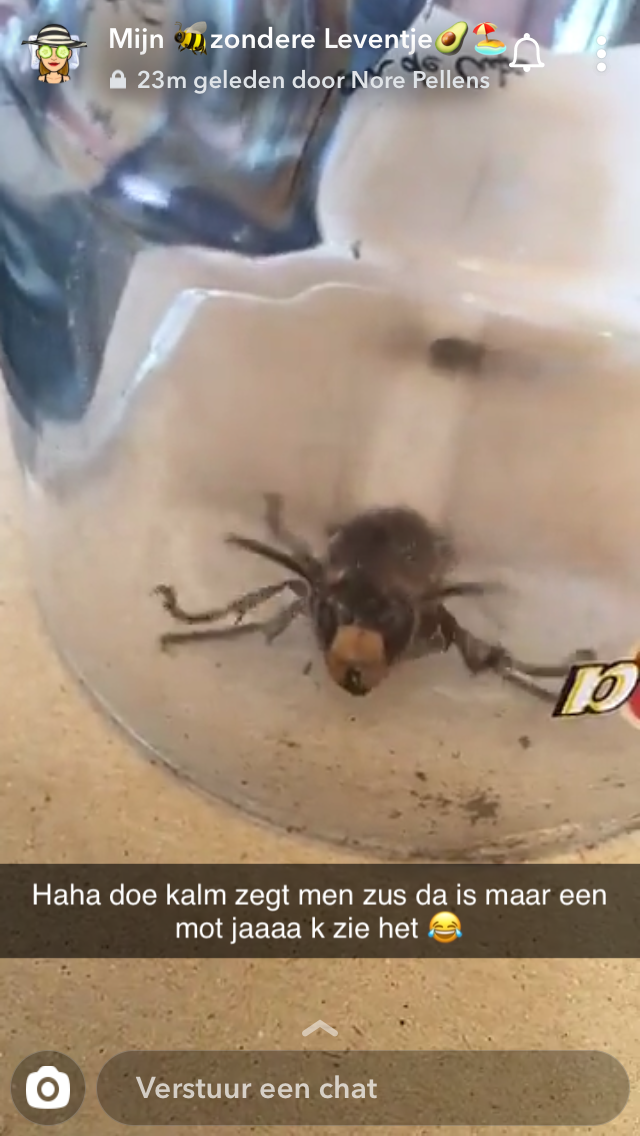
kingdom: Animalia
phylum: Arthropoda
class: Insecta
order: Hymenoptera
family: Vespidae
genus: Vespa
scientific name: Vespa crabro
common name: Hornet
